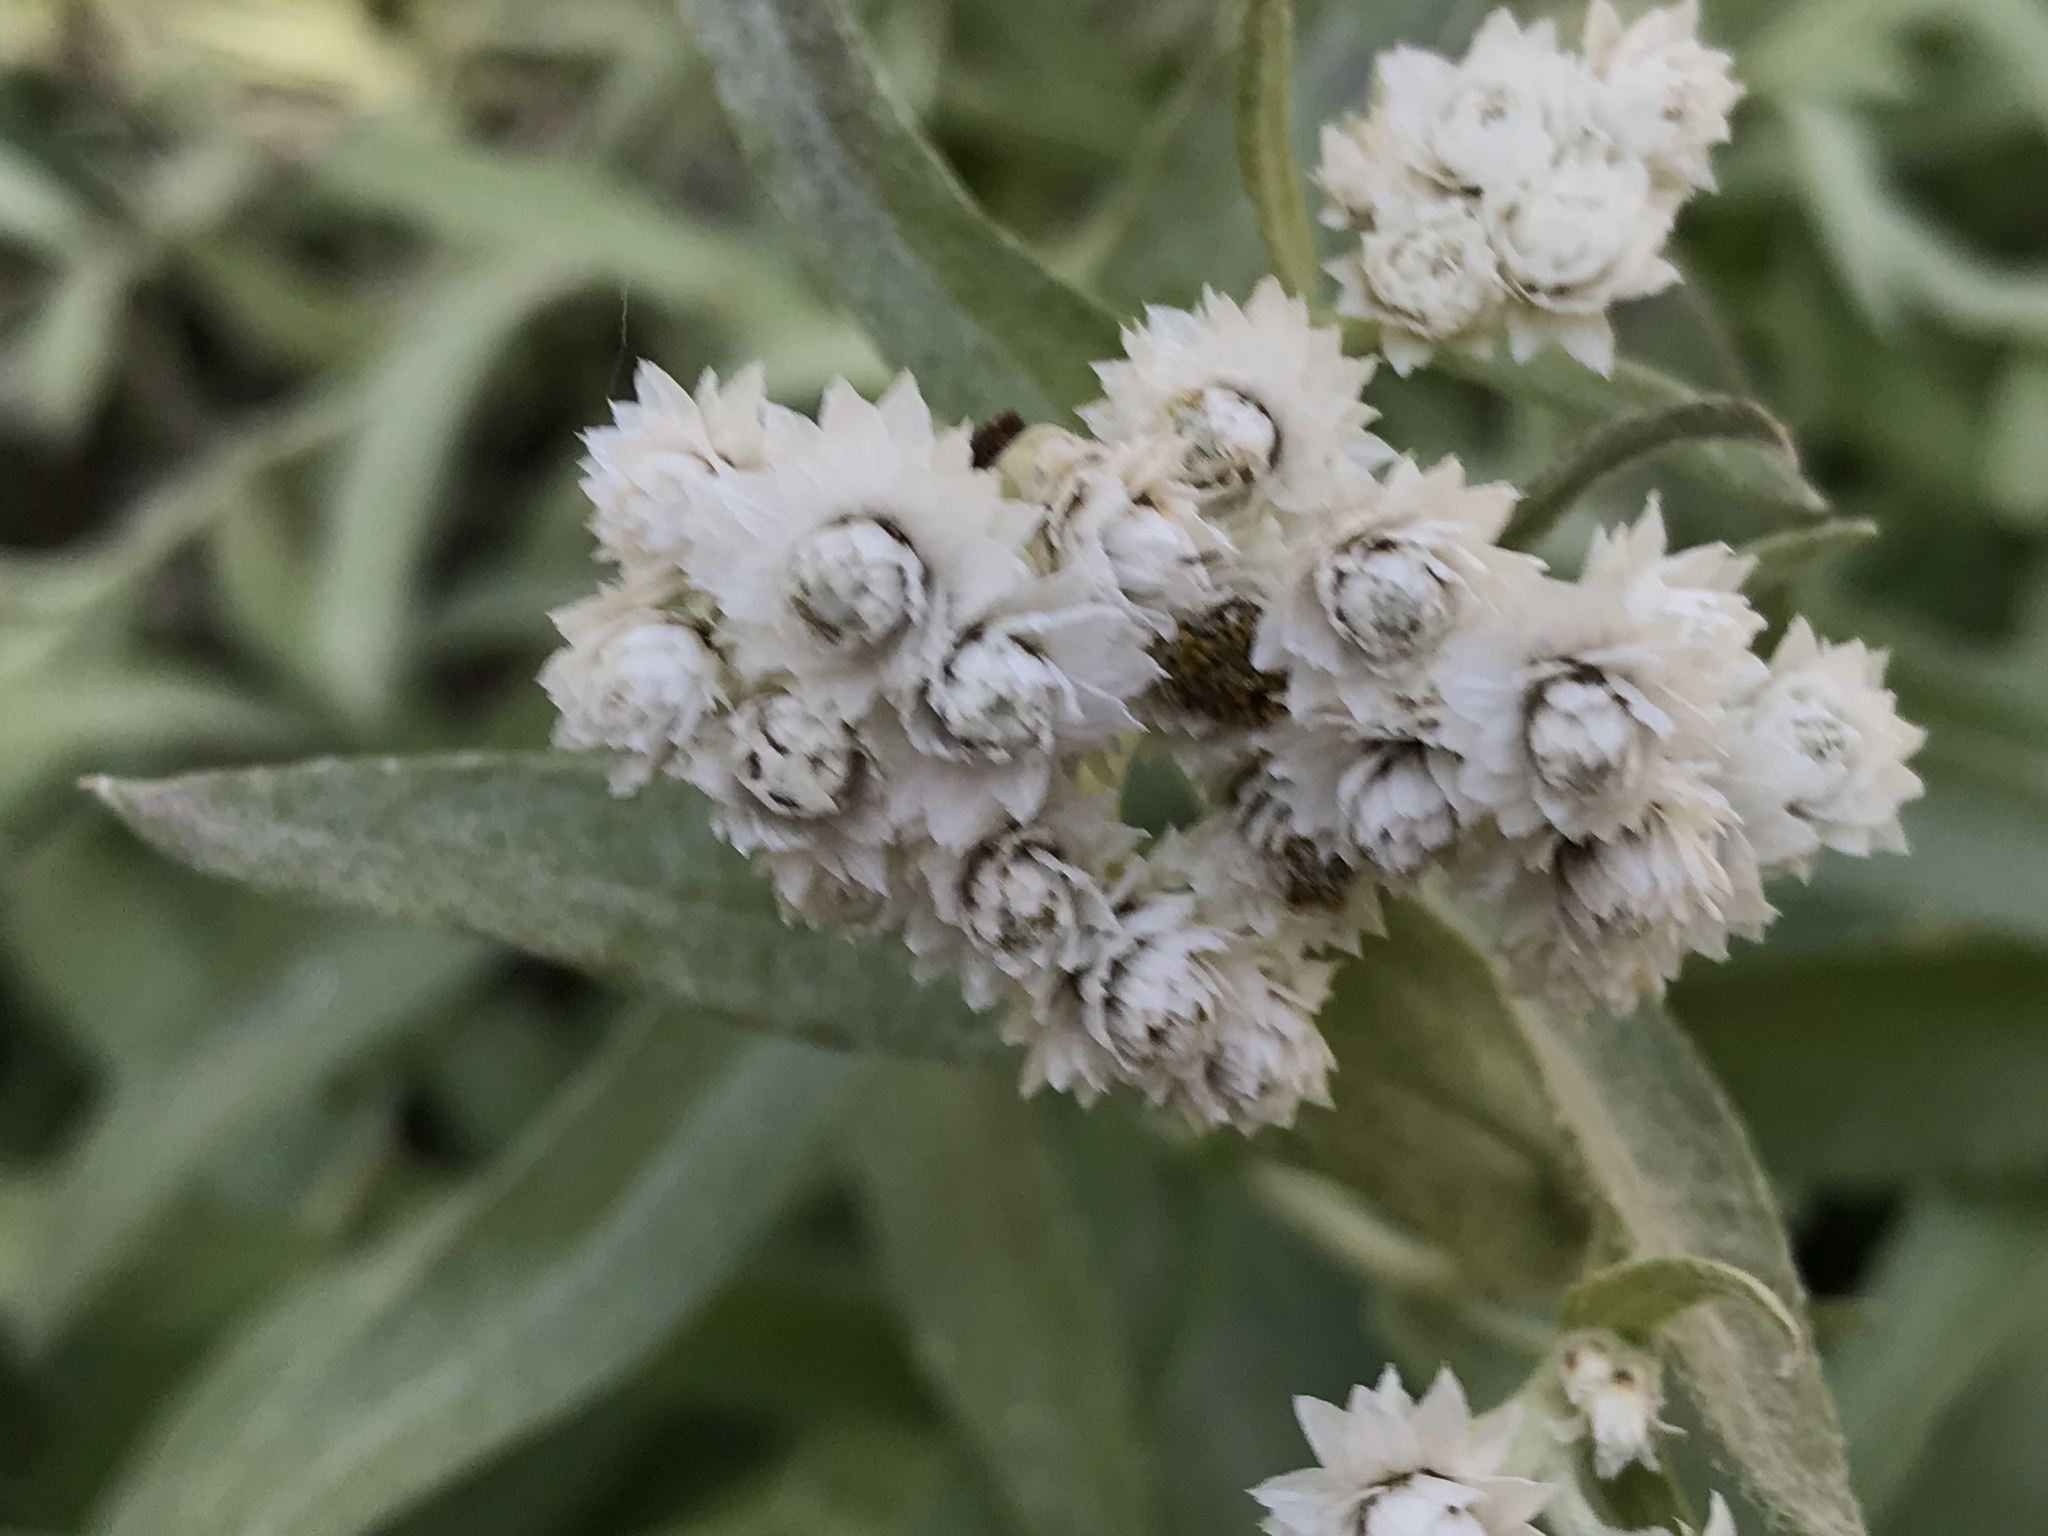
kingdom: Plantae
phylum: Tracheophyta
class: Magnoliopsida
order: Asterales
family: Asteraceae
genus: Anaphalis
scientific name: Anaphalis margaritacea
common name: Pearly everlasting
